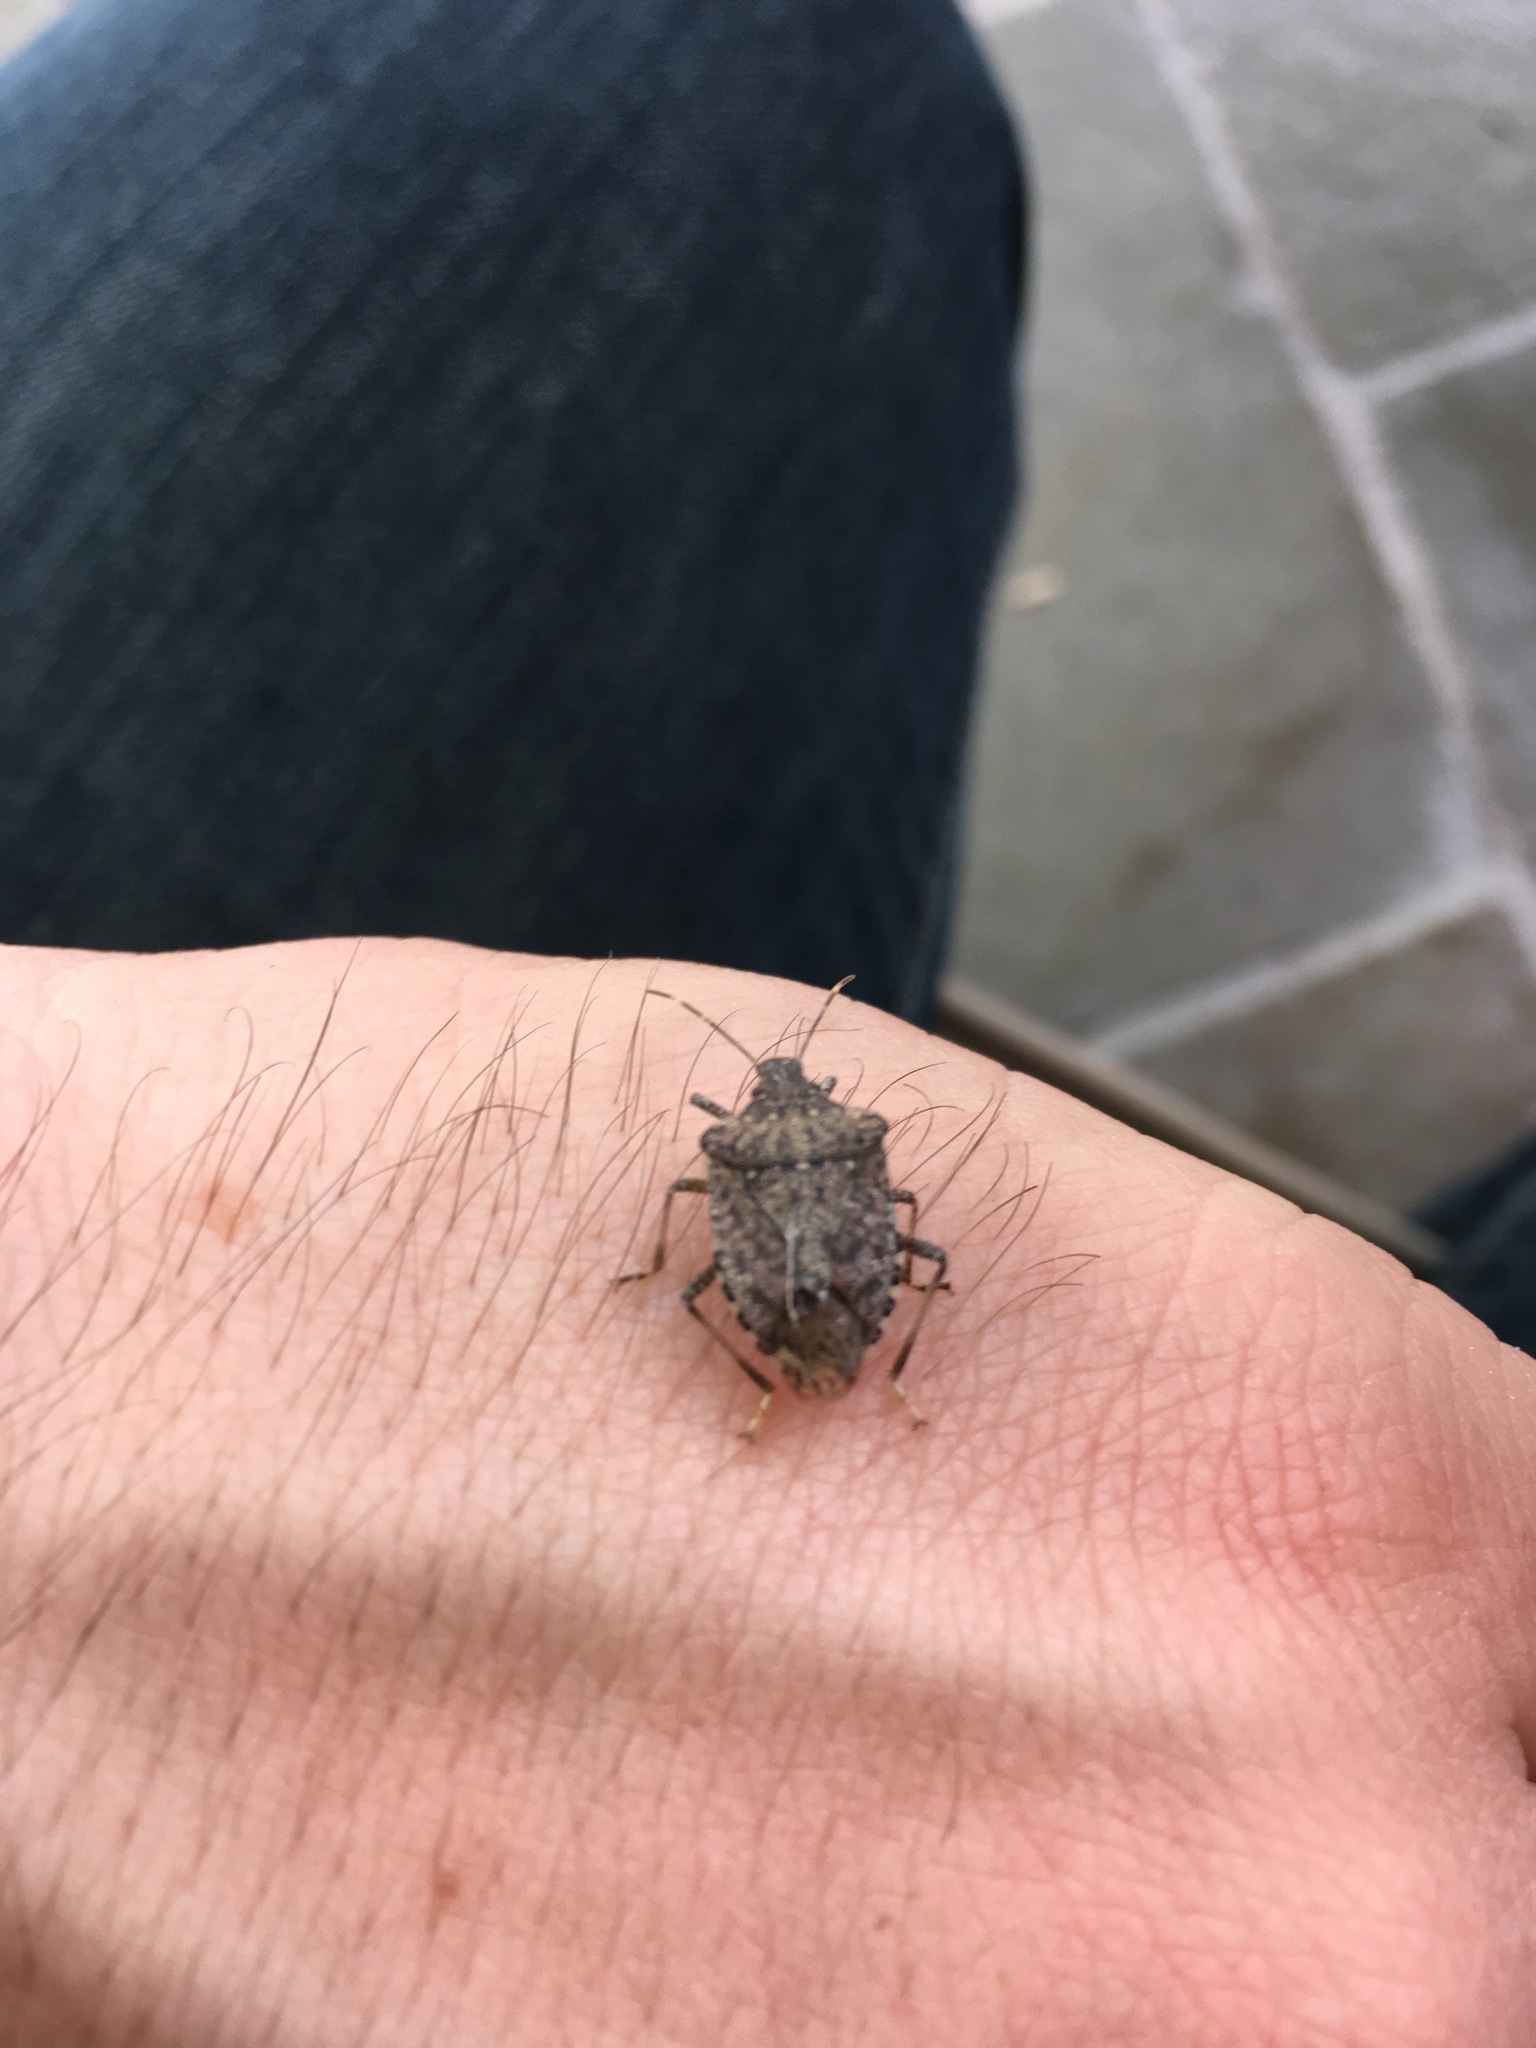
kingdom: Animalia
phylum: Arthropoda
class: Insecta
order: Hemiptera
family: Pentatomidae
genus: Halyomorpha
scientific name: Halyomorpha halys
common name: Brown marmorated stink bug
